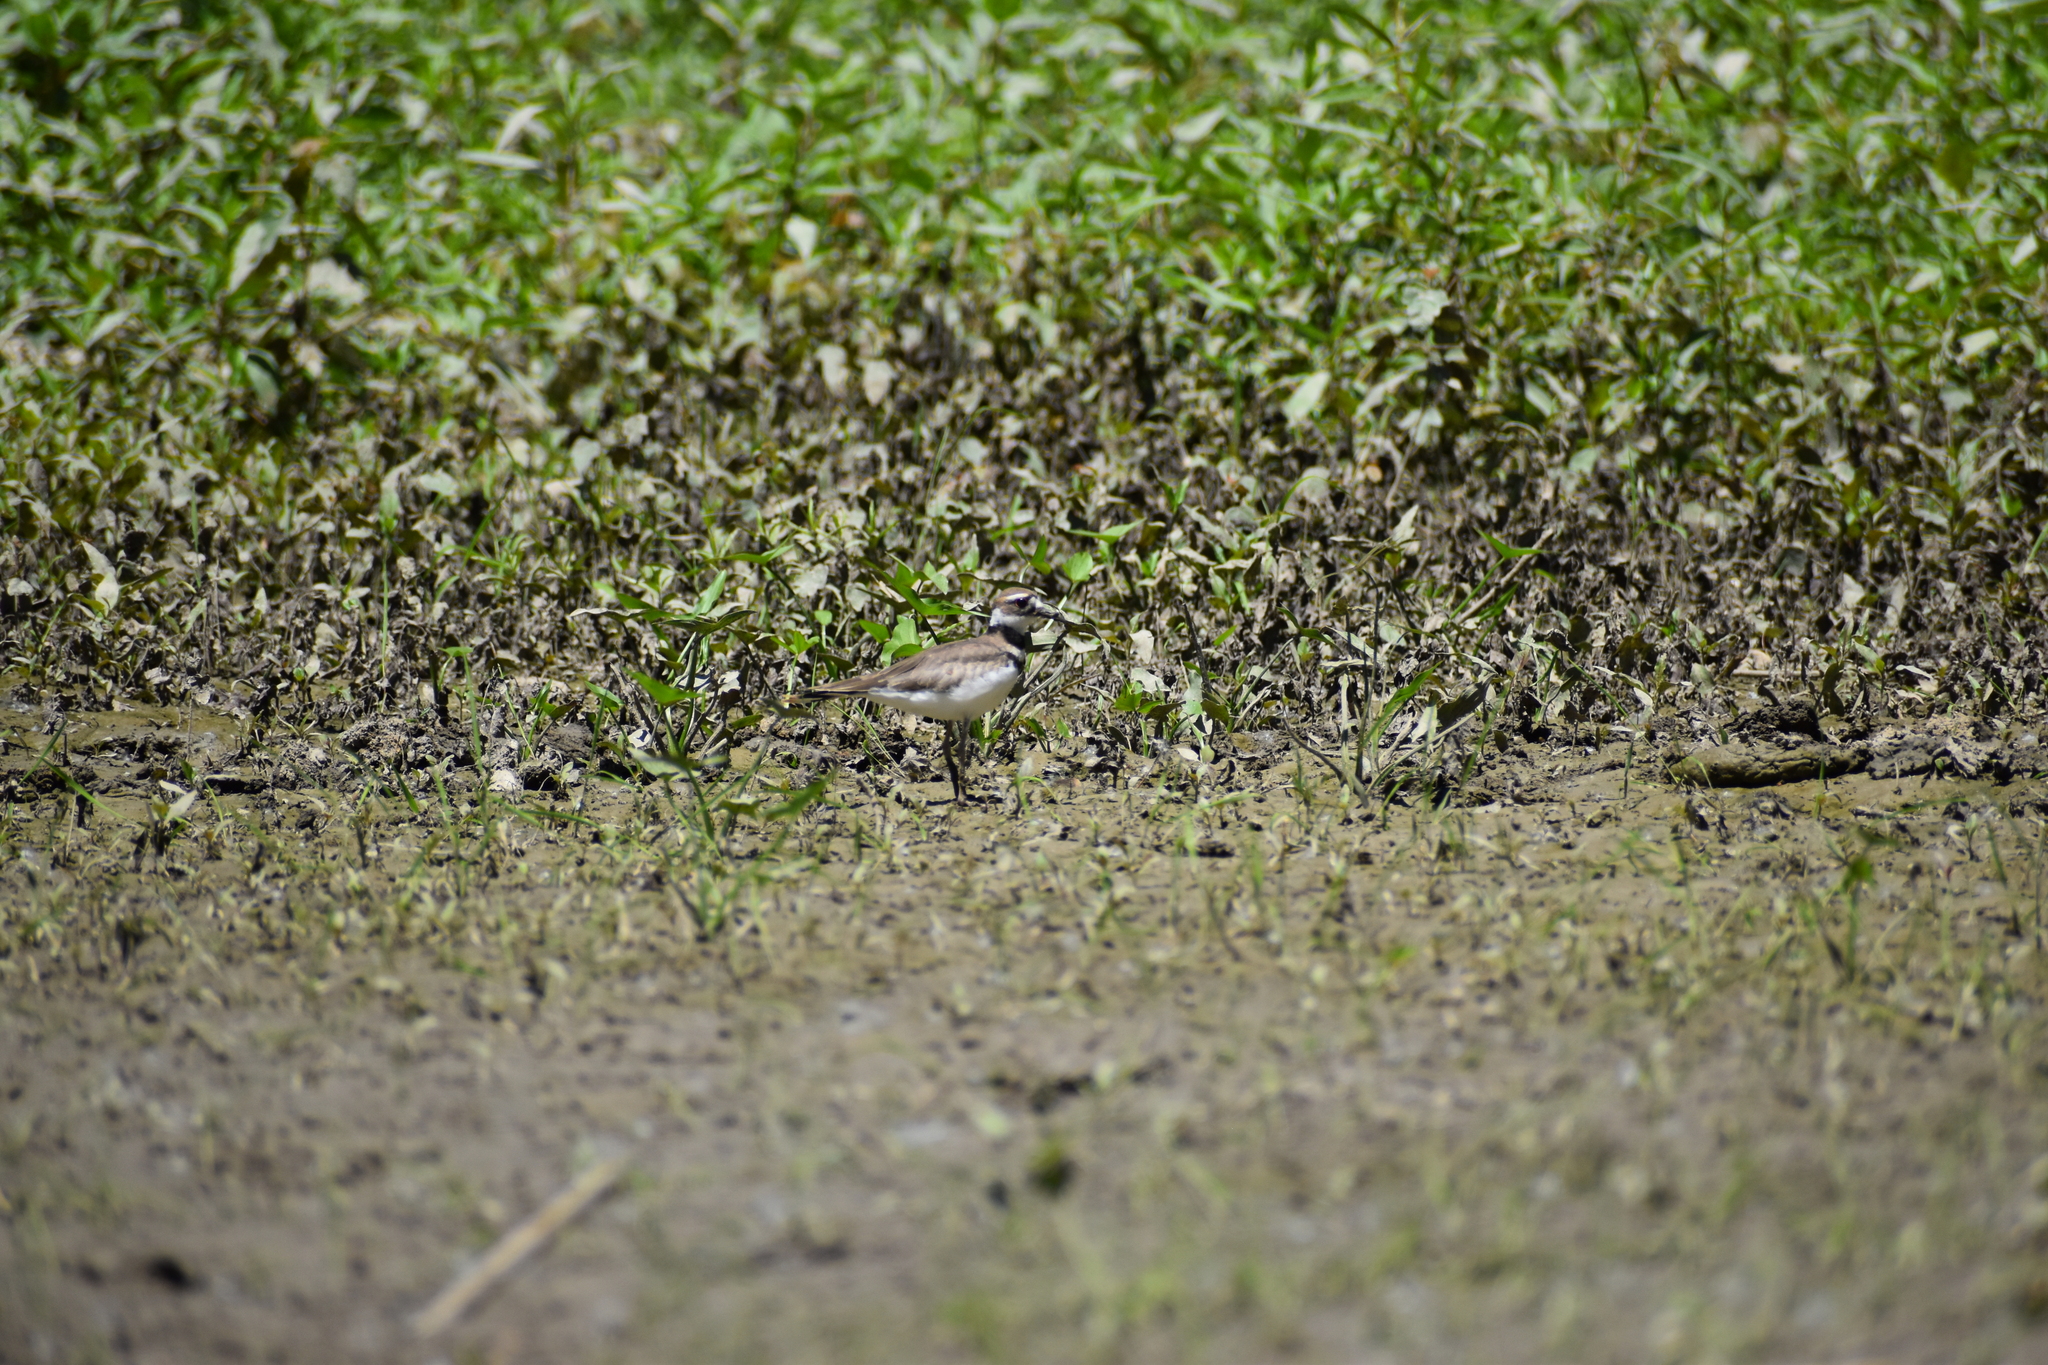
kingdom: Animalia
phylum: Chordata
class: Aves
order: Charadriiformes
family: Charadriidae
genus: Charadrius
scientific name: Charadrius vociferus
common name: Killdeer
